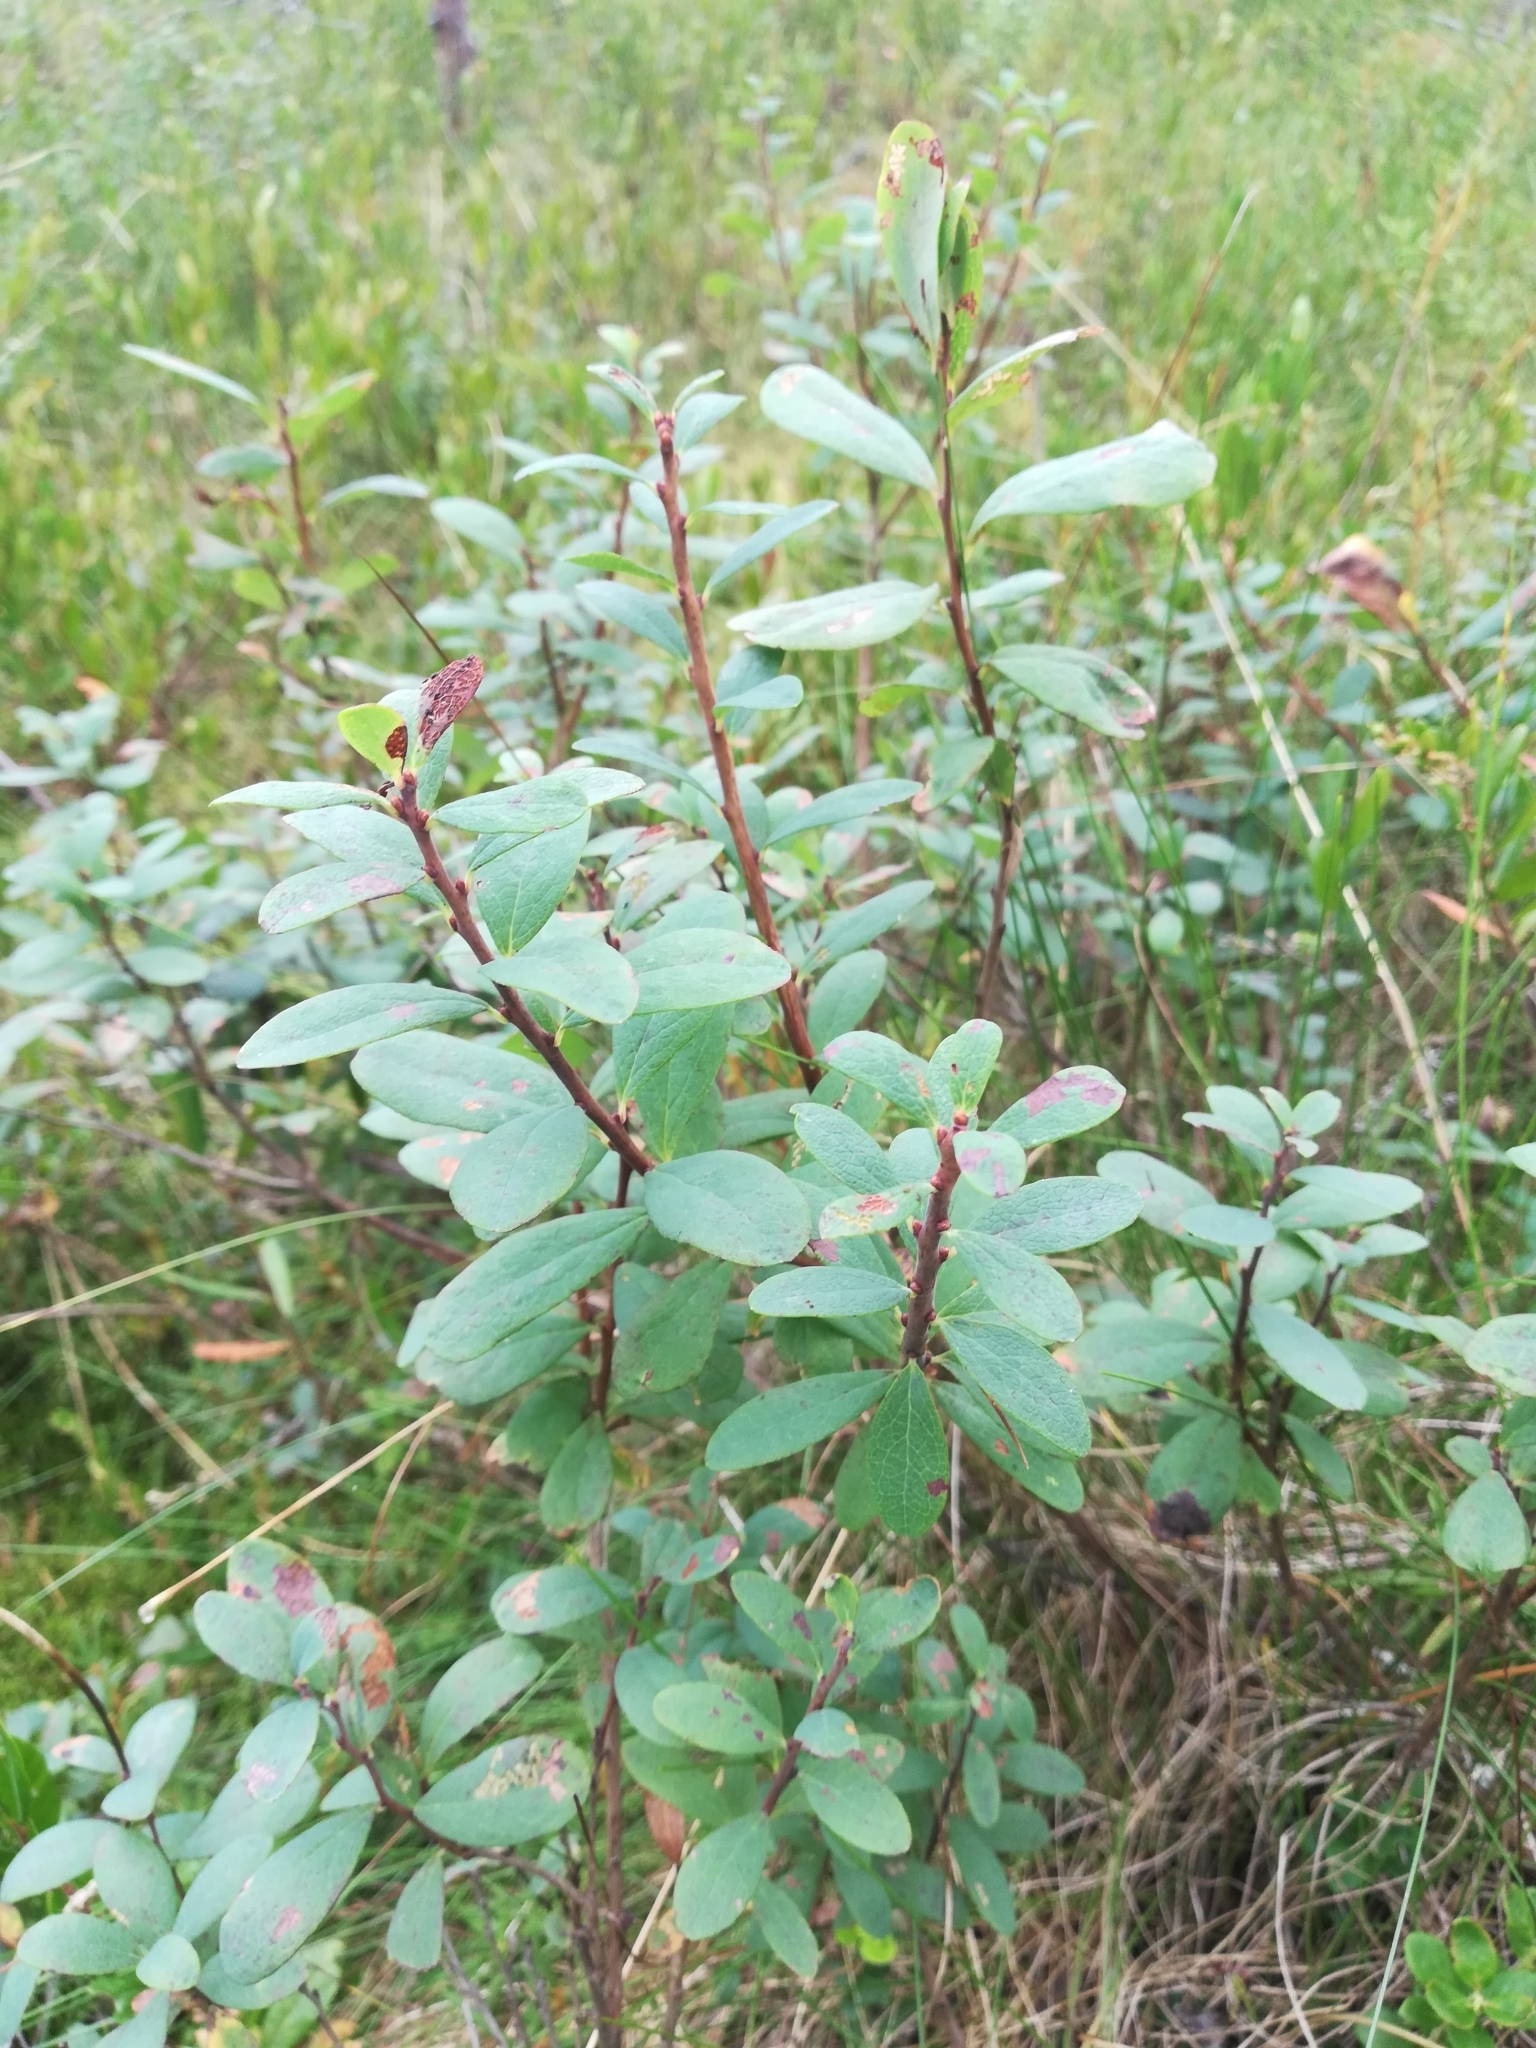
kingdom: Plantae
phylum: Tracheophyta
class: Magnoliopsida
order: Ericales
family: Ericaceae
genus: Vaccinium
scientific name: Vaccinium uliginosum
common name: Bog bilberry
